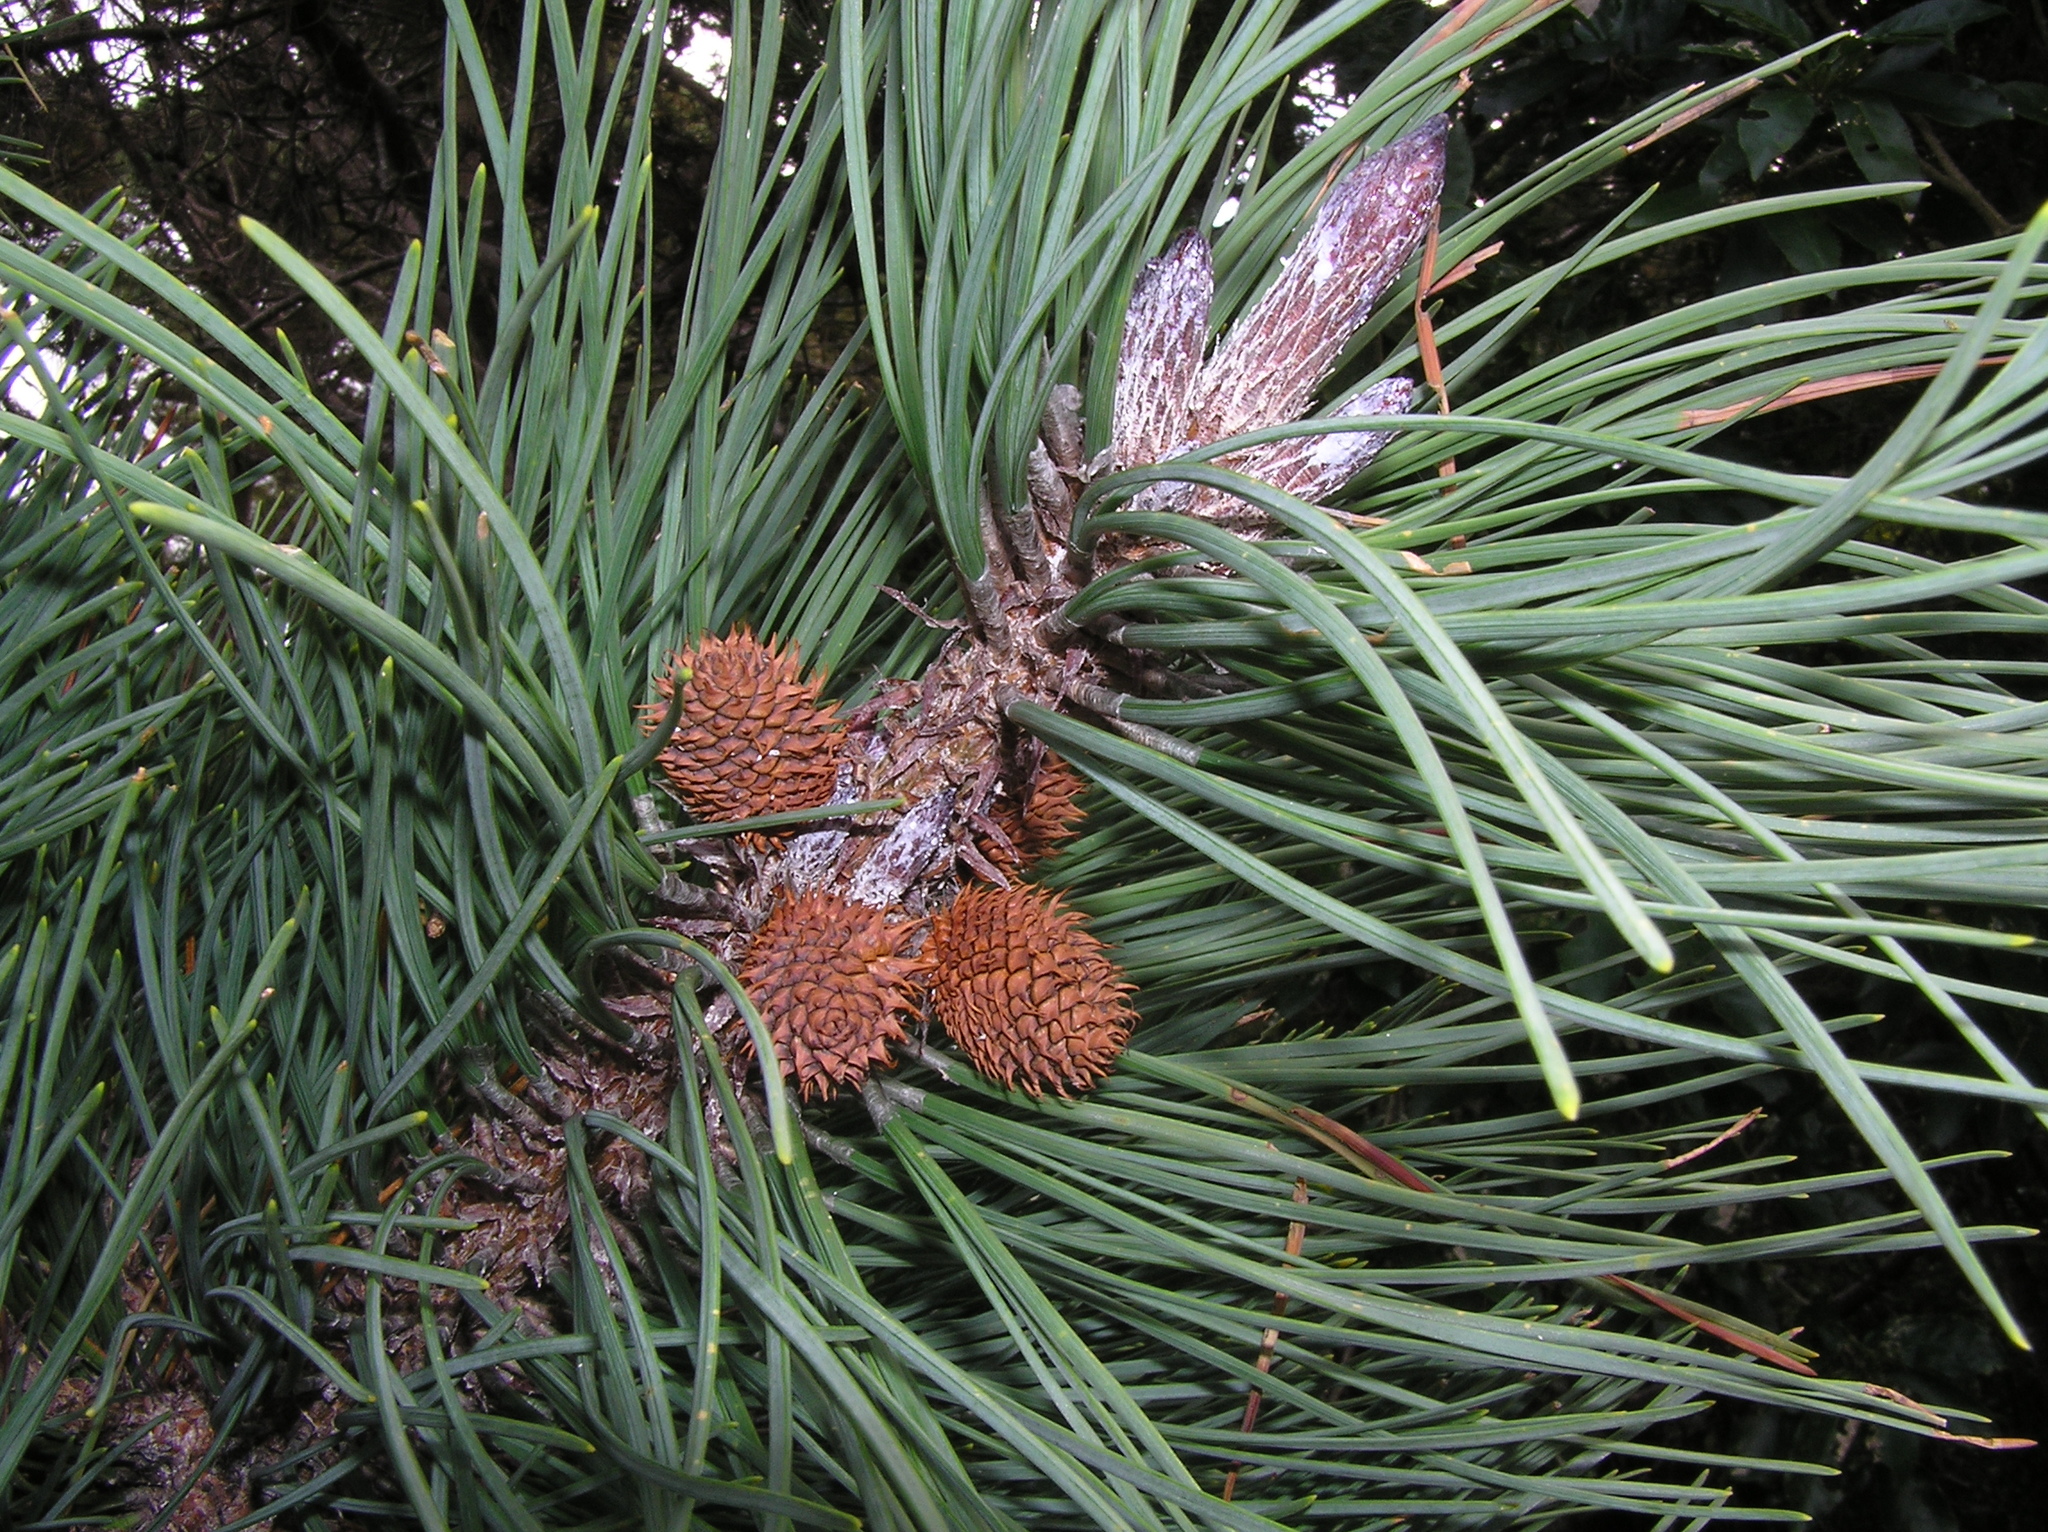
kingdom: Plantae
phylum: Tracheophyta
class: Pinopsida
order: Pinales
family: Pinaceae
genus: Pinus
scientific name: Pinus muricata
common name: Bishop pine
